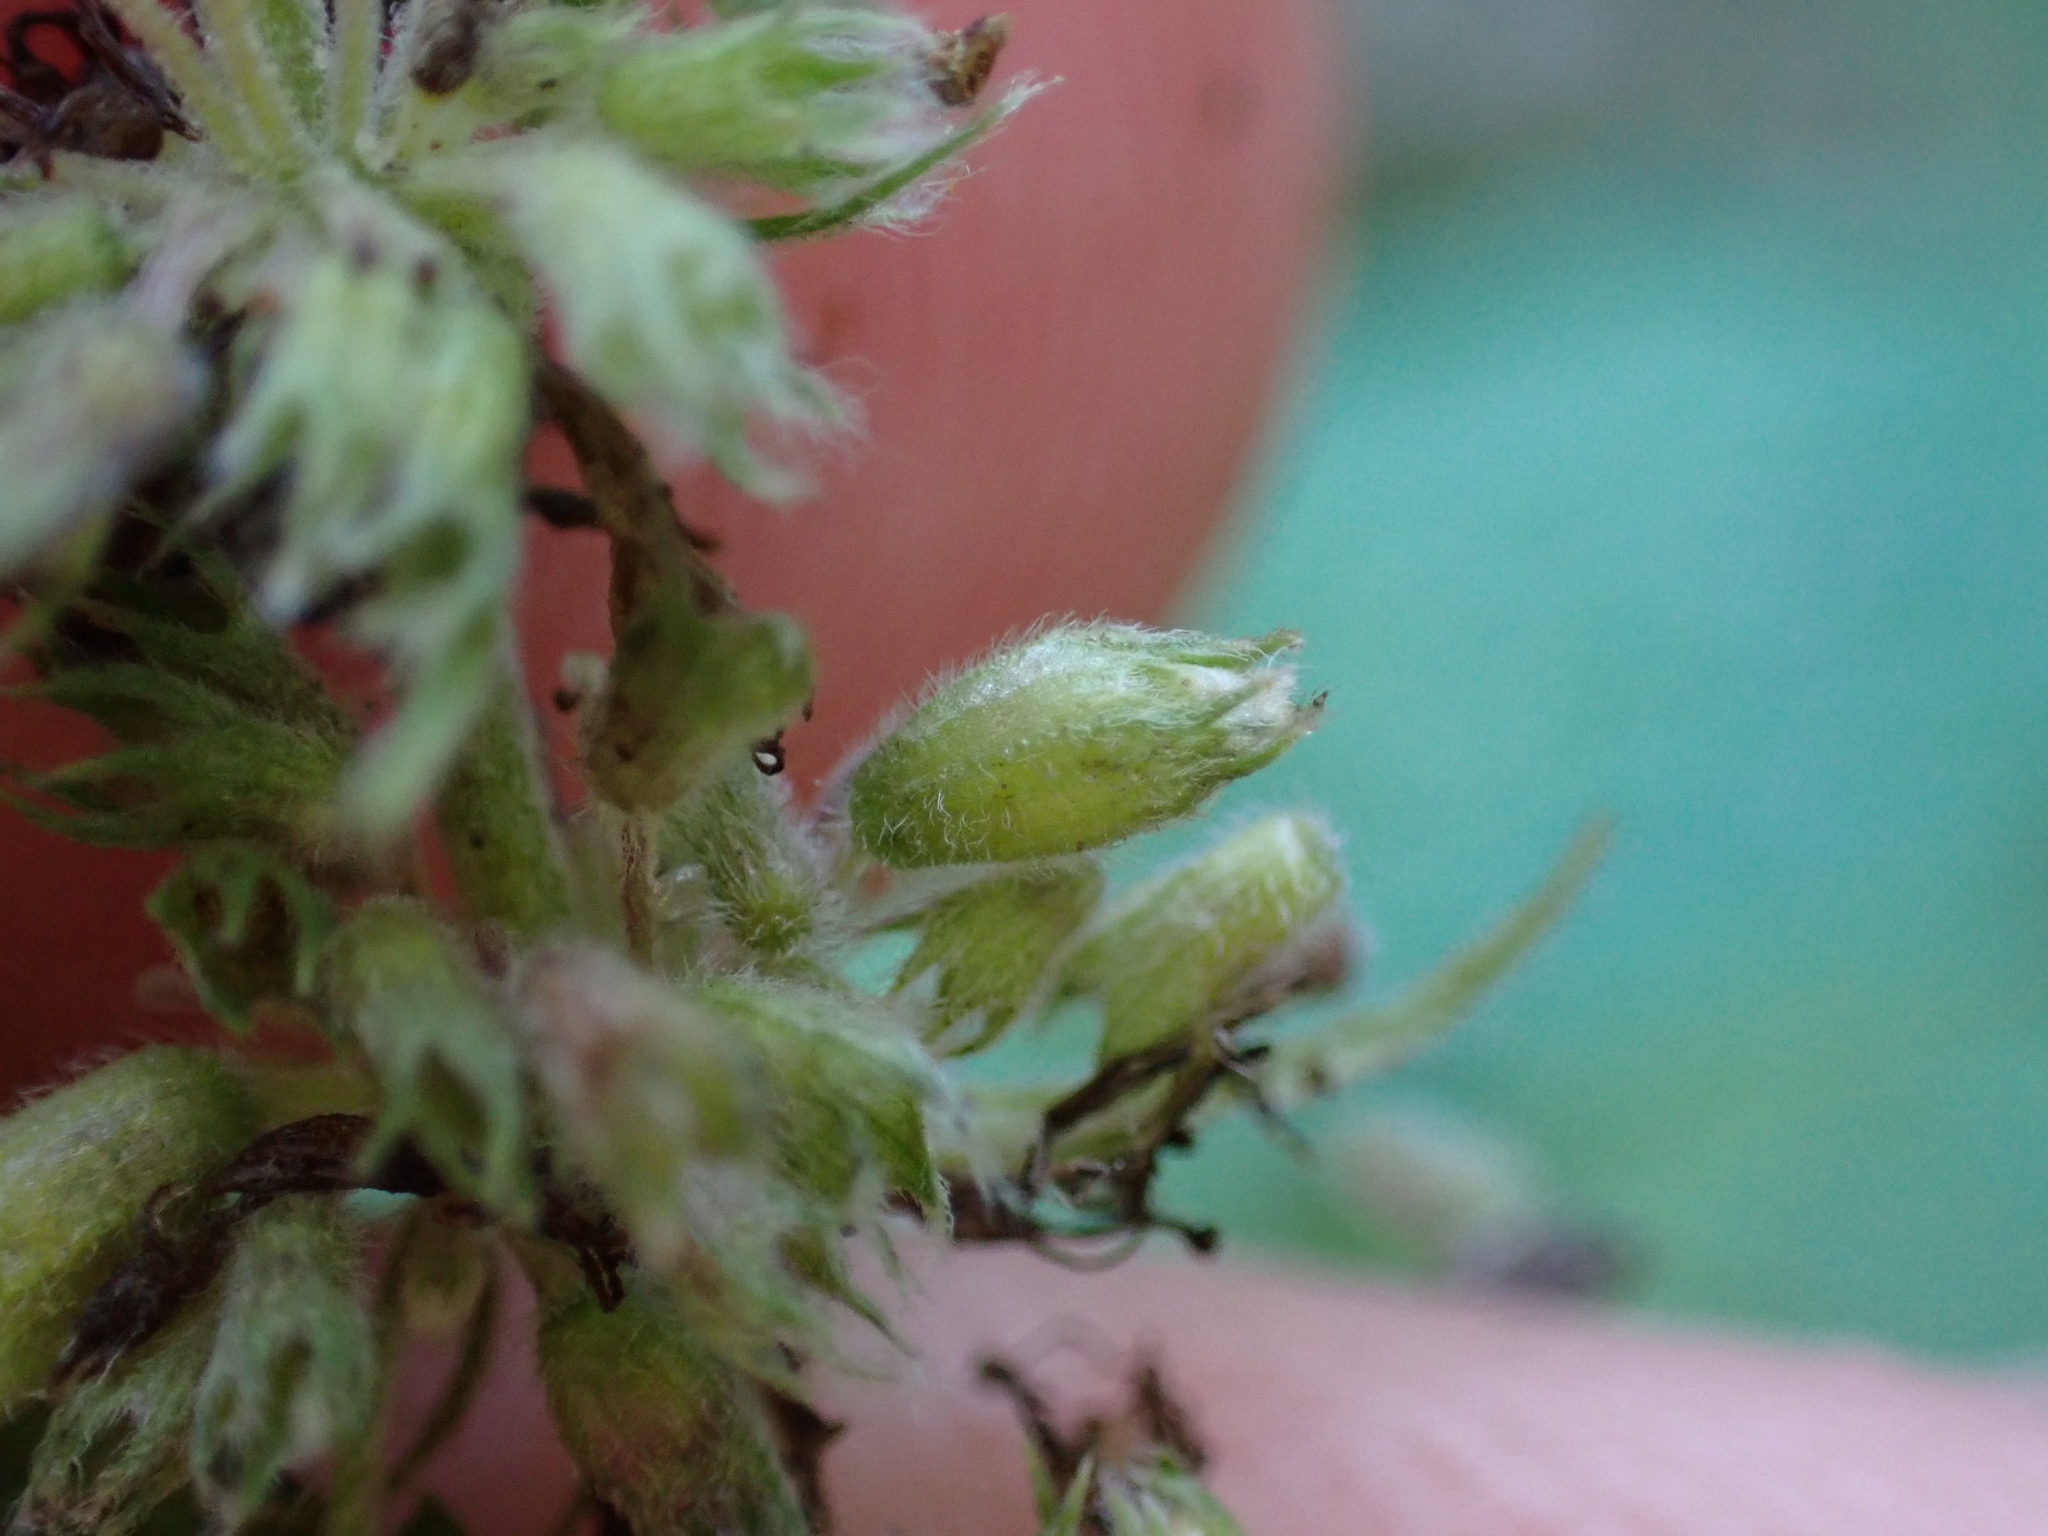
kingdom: Animalia
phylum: Arthropoda
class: Insecta
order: Diptera
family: Cecidomyiidae
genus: Asphondylia
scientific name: Asphondylia menthae
